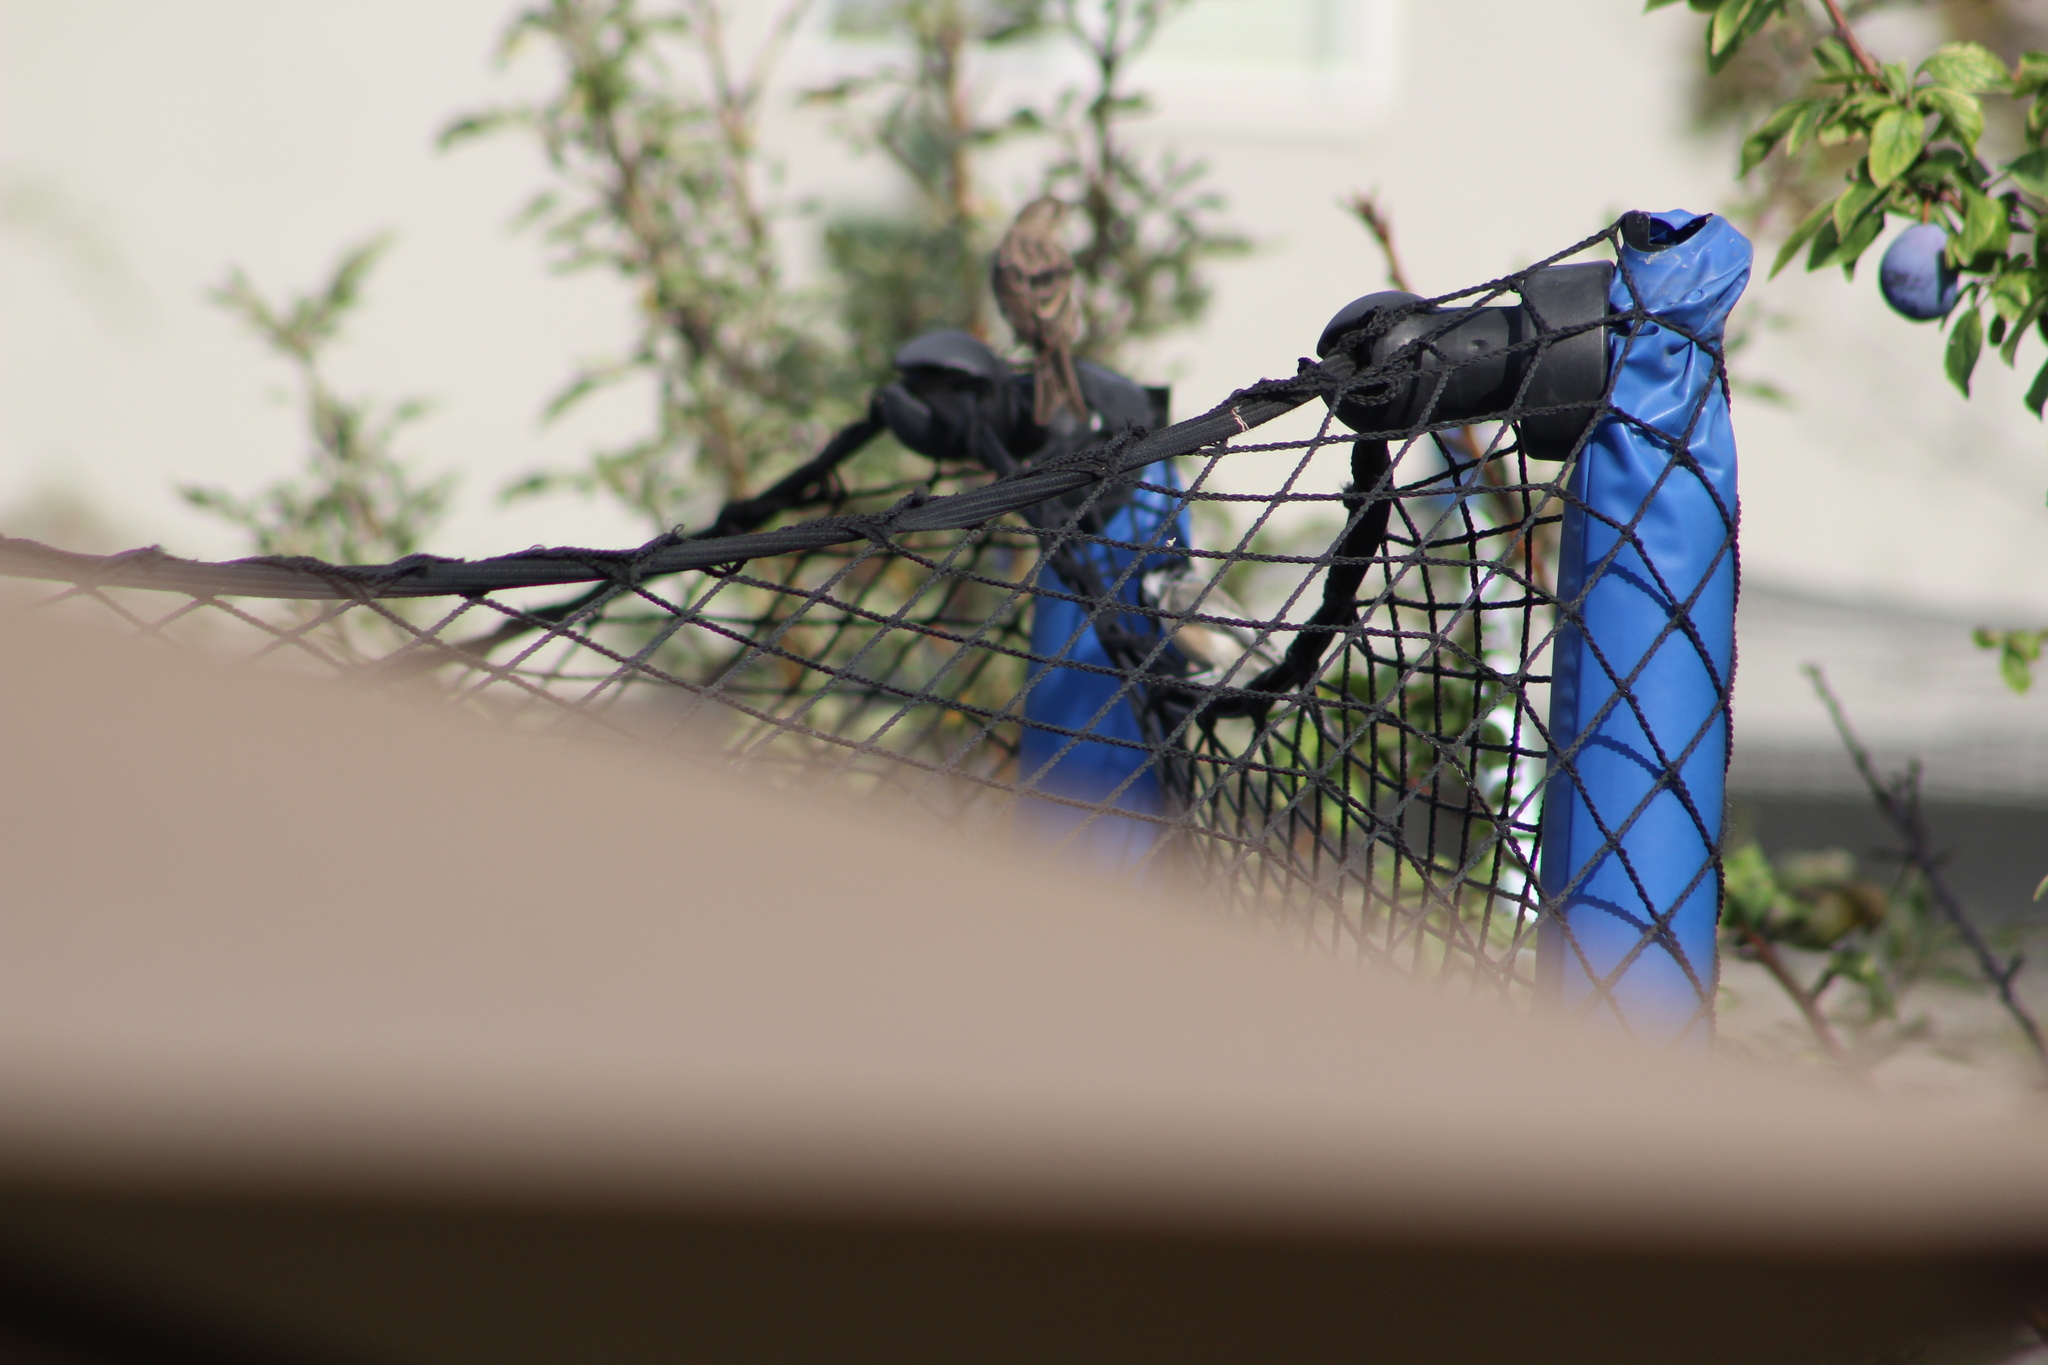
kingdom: Animalia
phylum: Chordata
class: Aves
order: Passeriformes
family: Paridae
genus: Poecile
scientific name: Poecile atricapillus
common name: Black-capped chickadee
